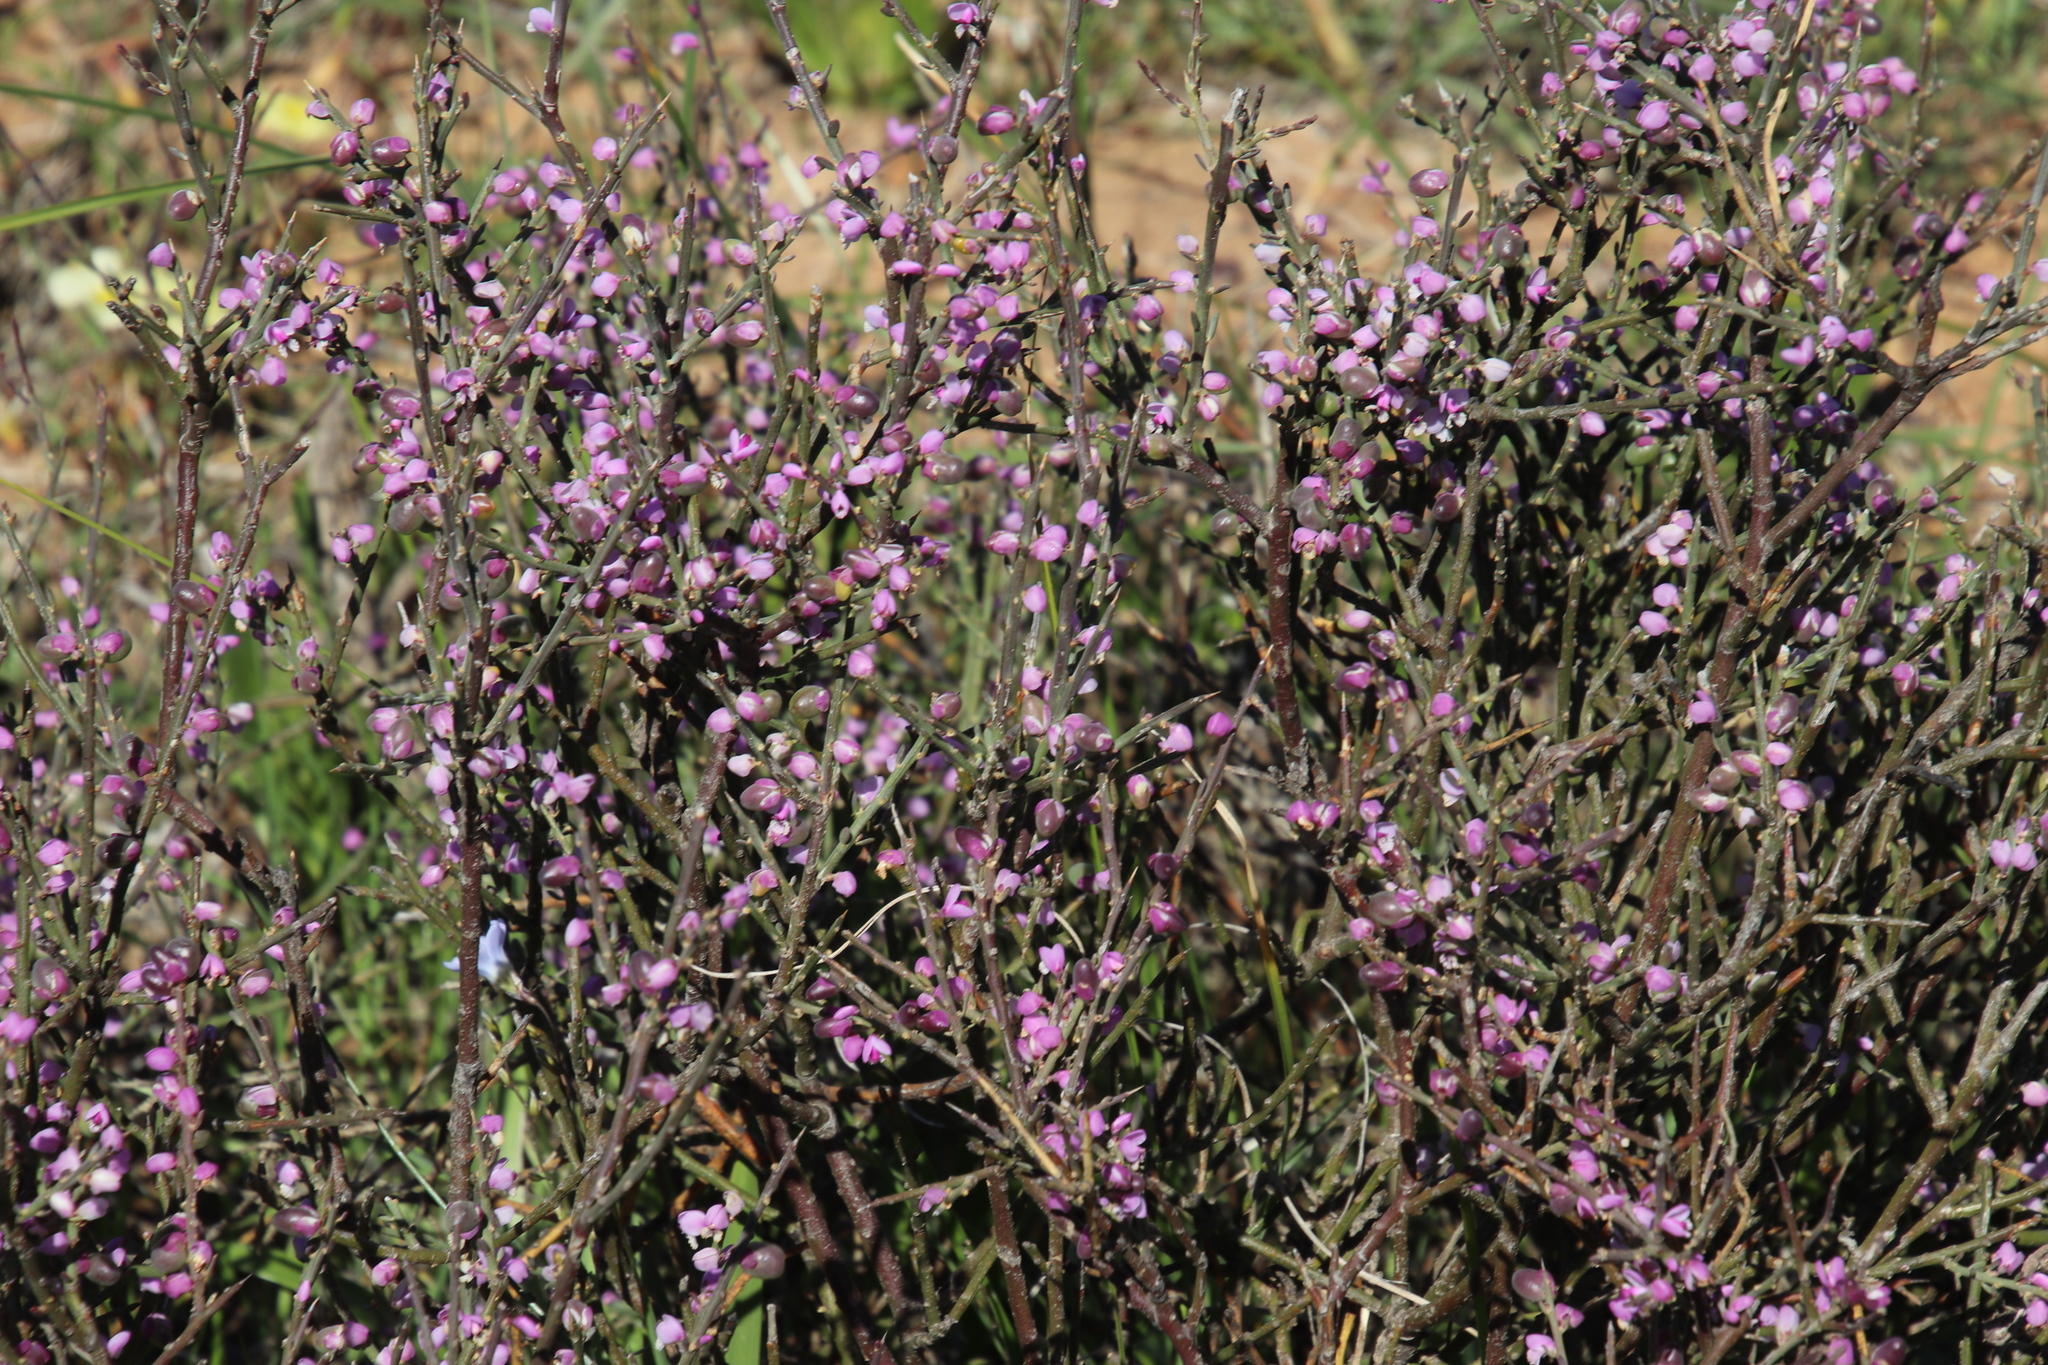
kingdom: Plantae
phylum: Tracheophyta
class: Magnoliopsida
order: Fabales
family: Polygalaceae
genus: Muraltia
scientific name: Muraltia spinosa
